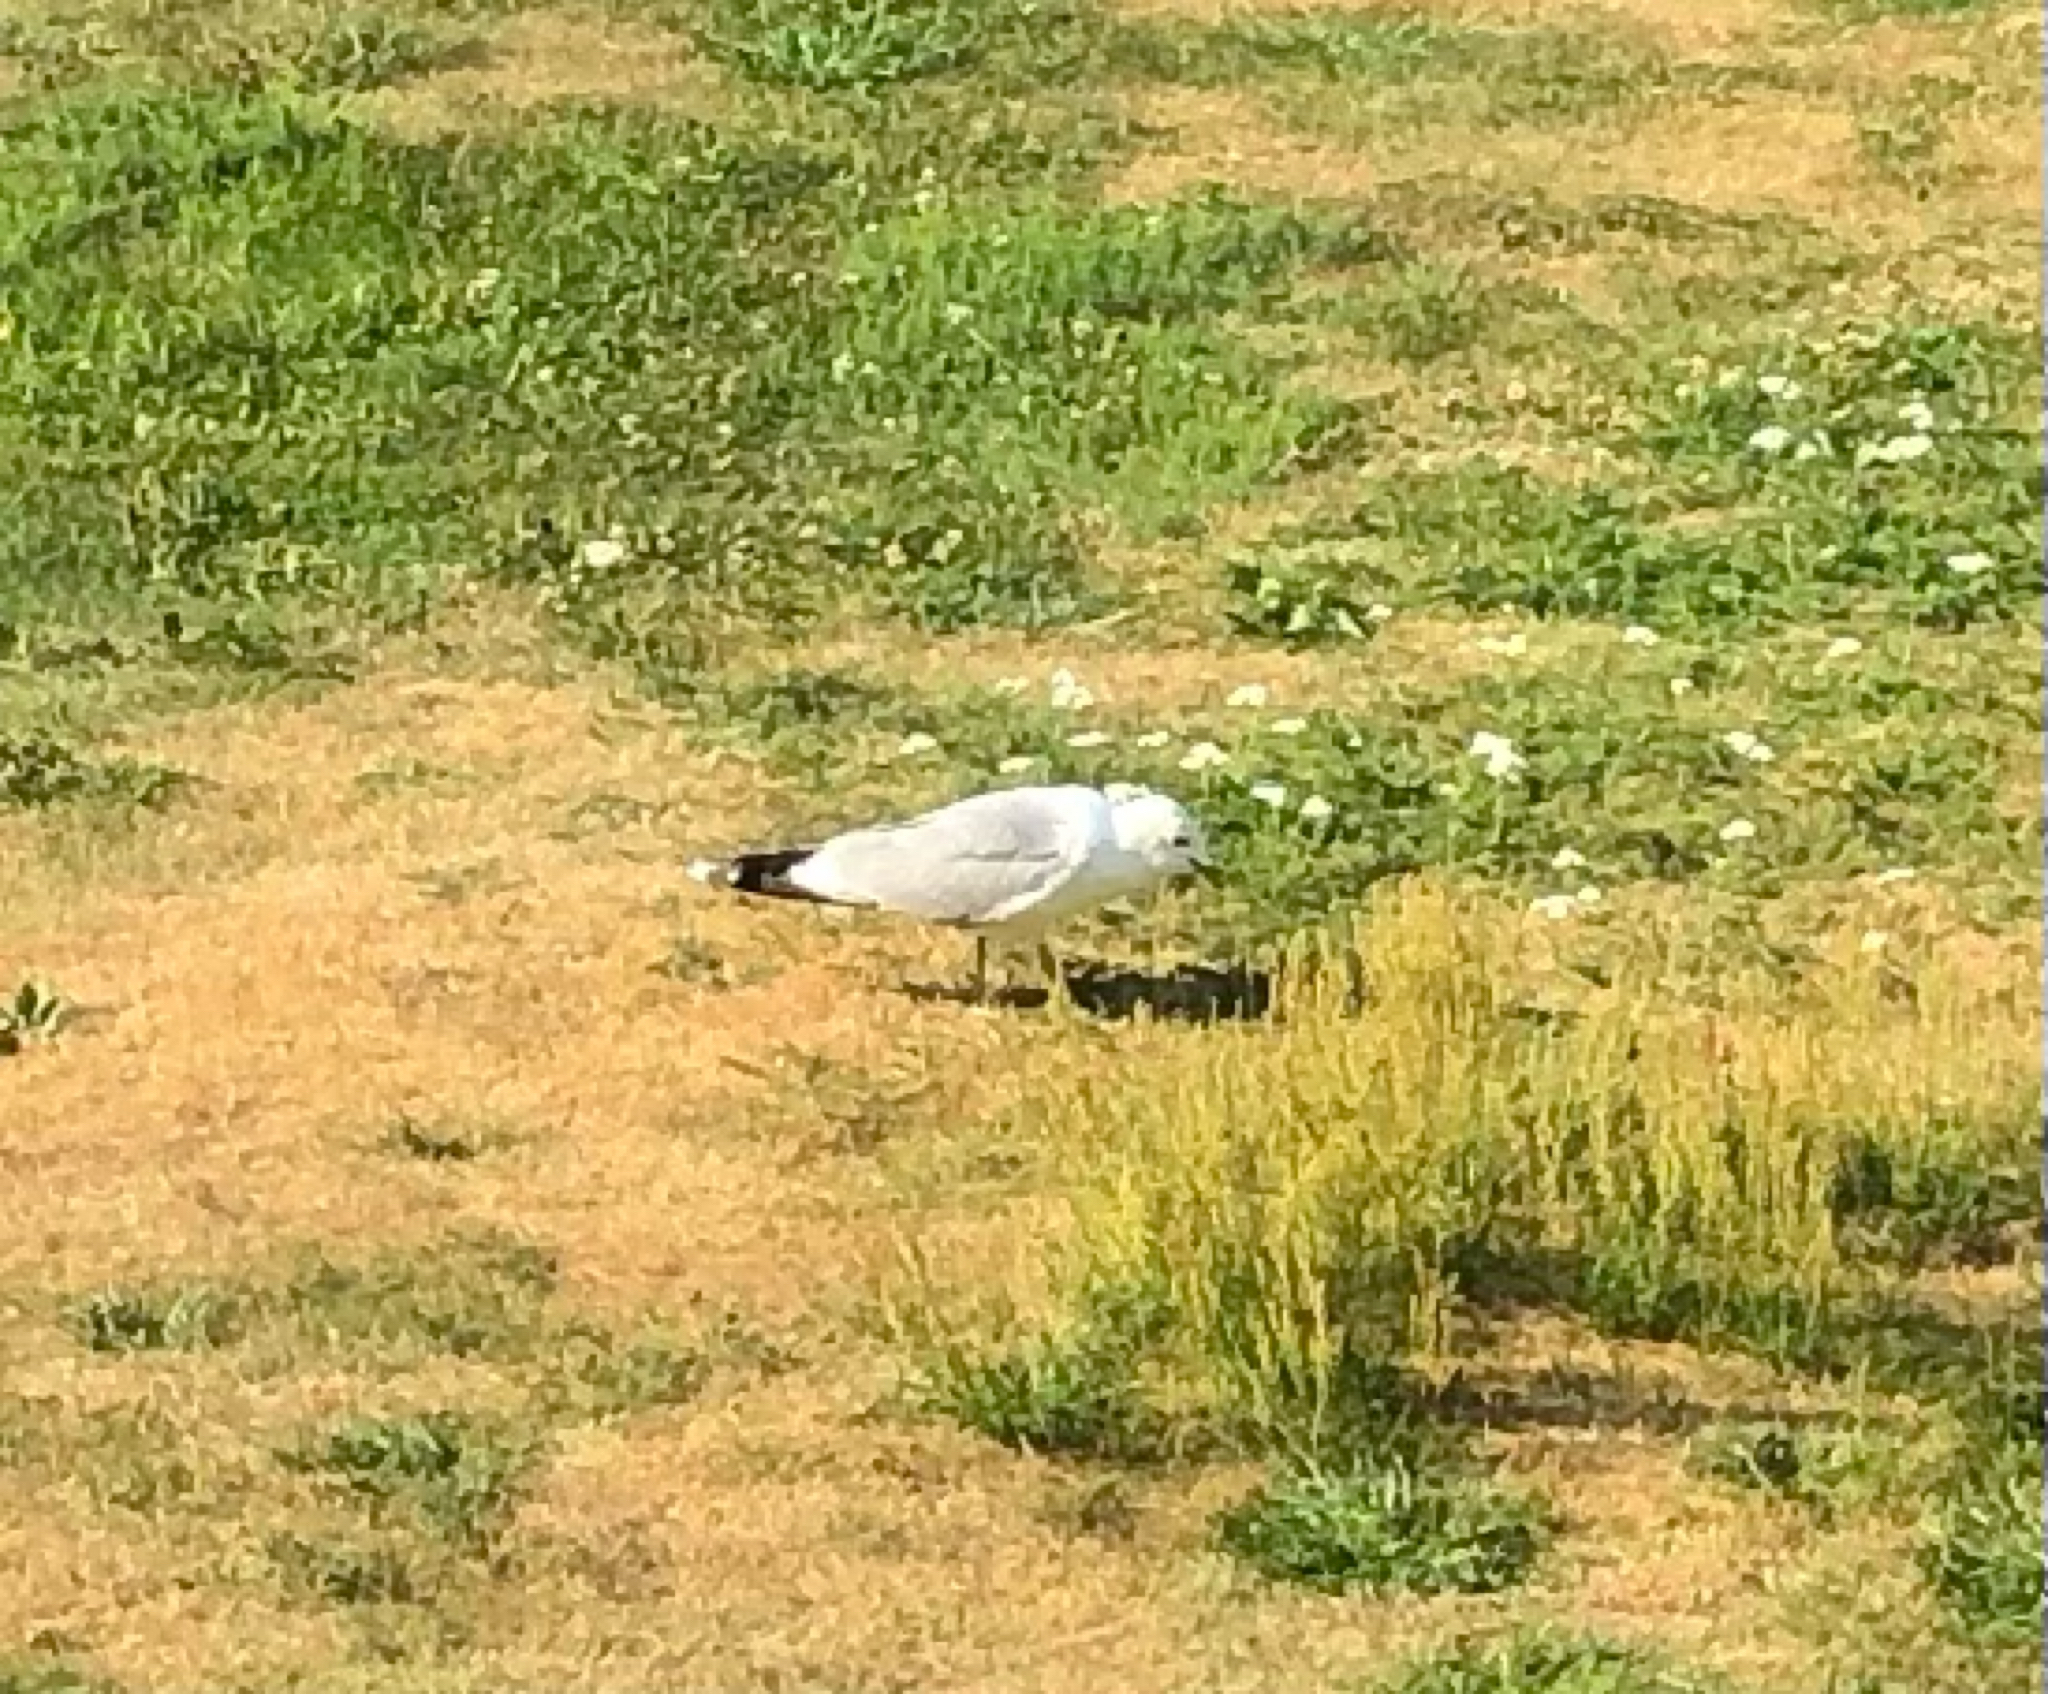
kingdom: Animalia
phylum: Chordata
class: Aves
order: Charadriiformes
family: Laridae
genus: Larus
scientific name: Larus canus
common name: Mew gull
